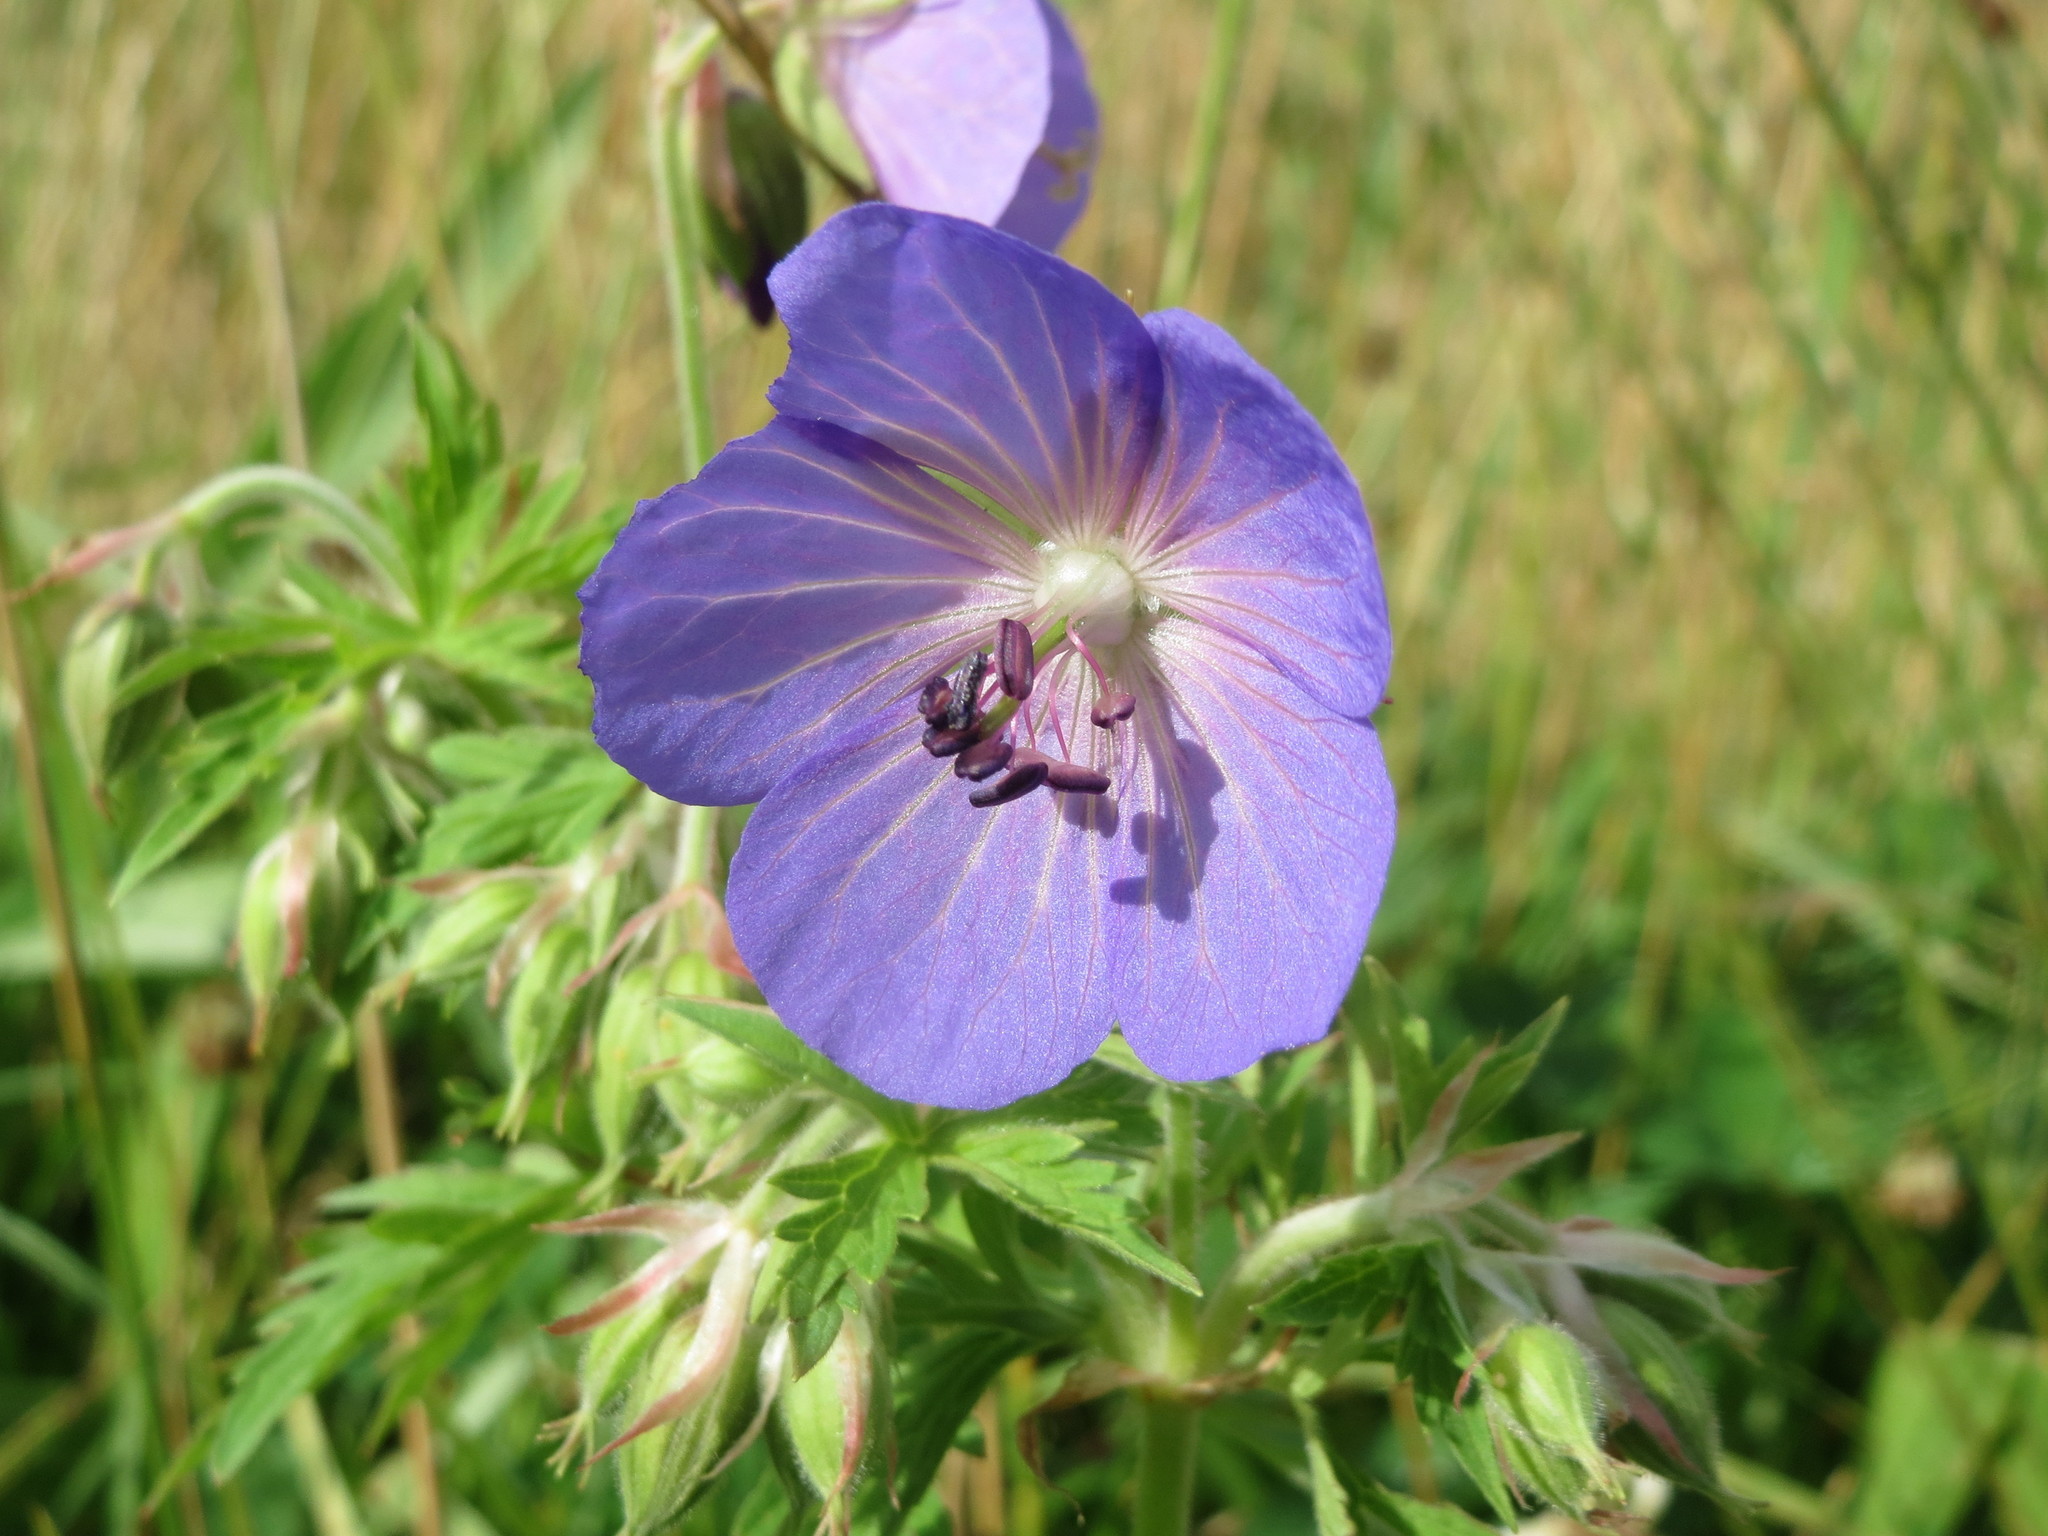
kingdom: Plantae
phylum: Tracheophyta
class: Magnoliopsida
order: Geraniales
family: Geraniaceae
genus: Geranium
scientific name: Geranium pratense
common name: Meadow crane's-bill
